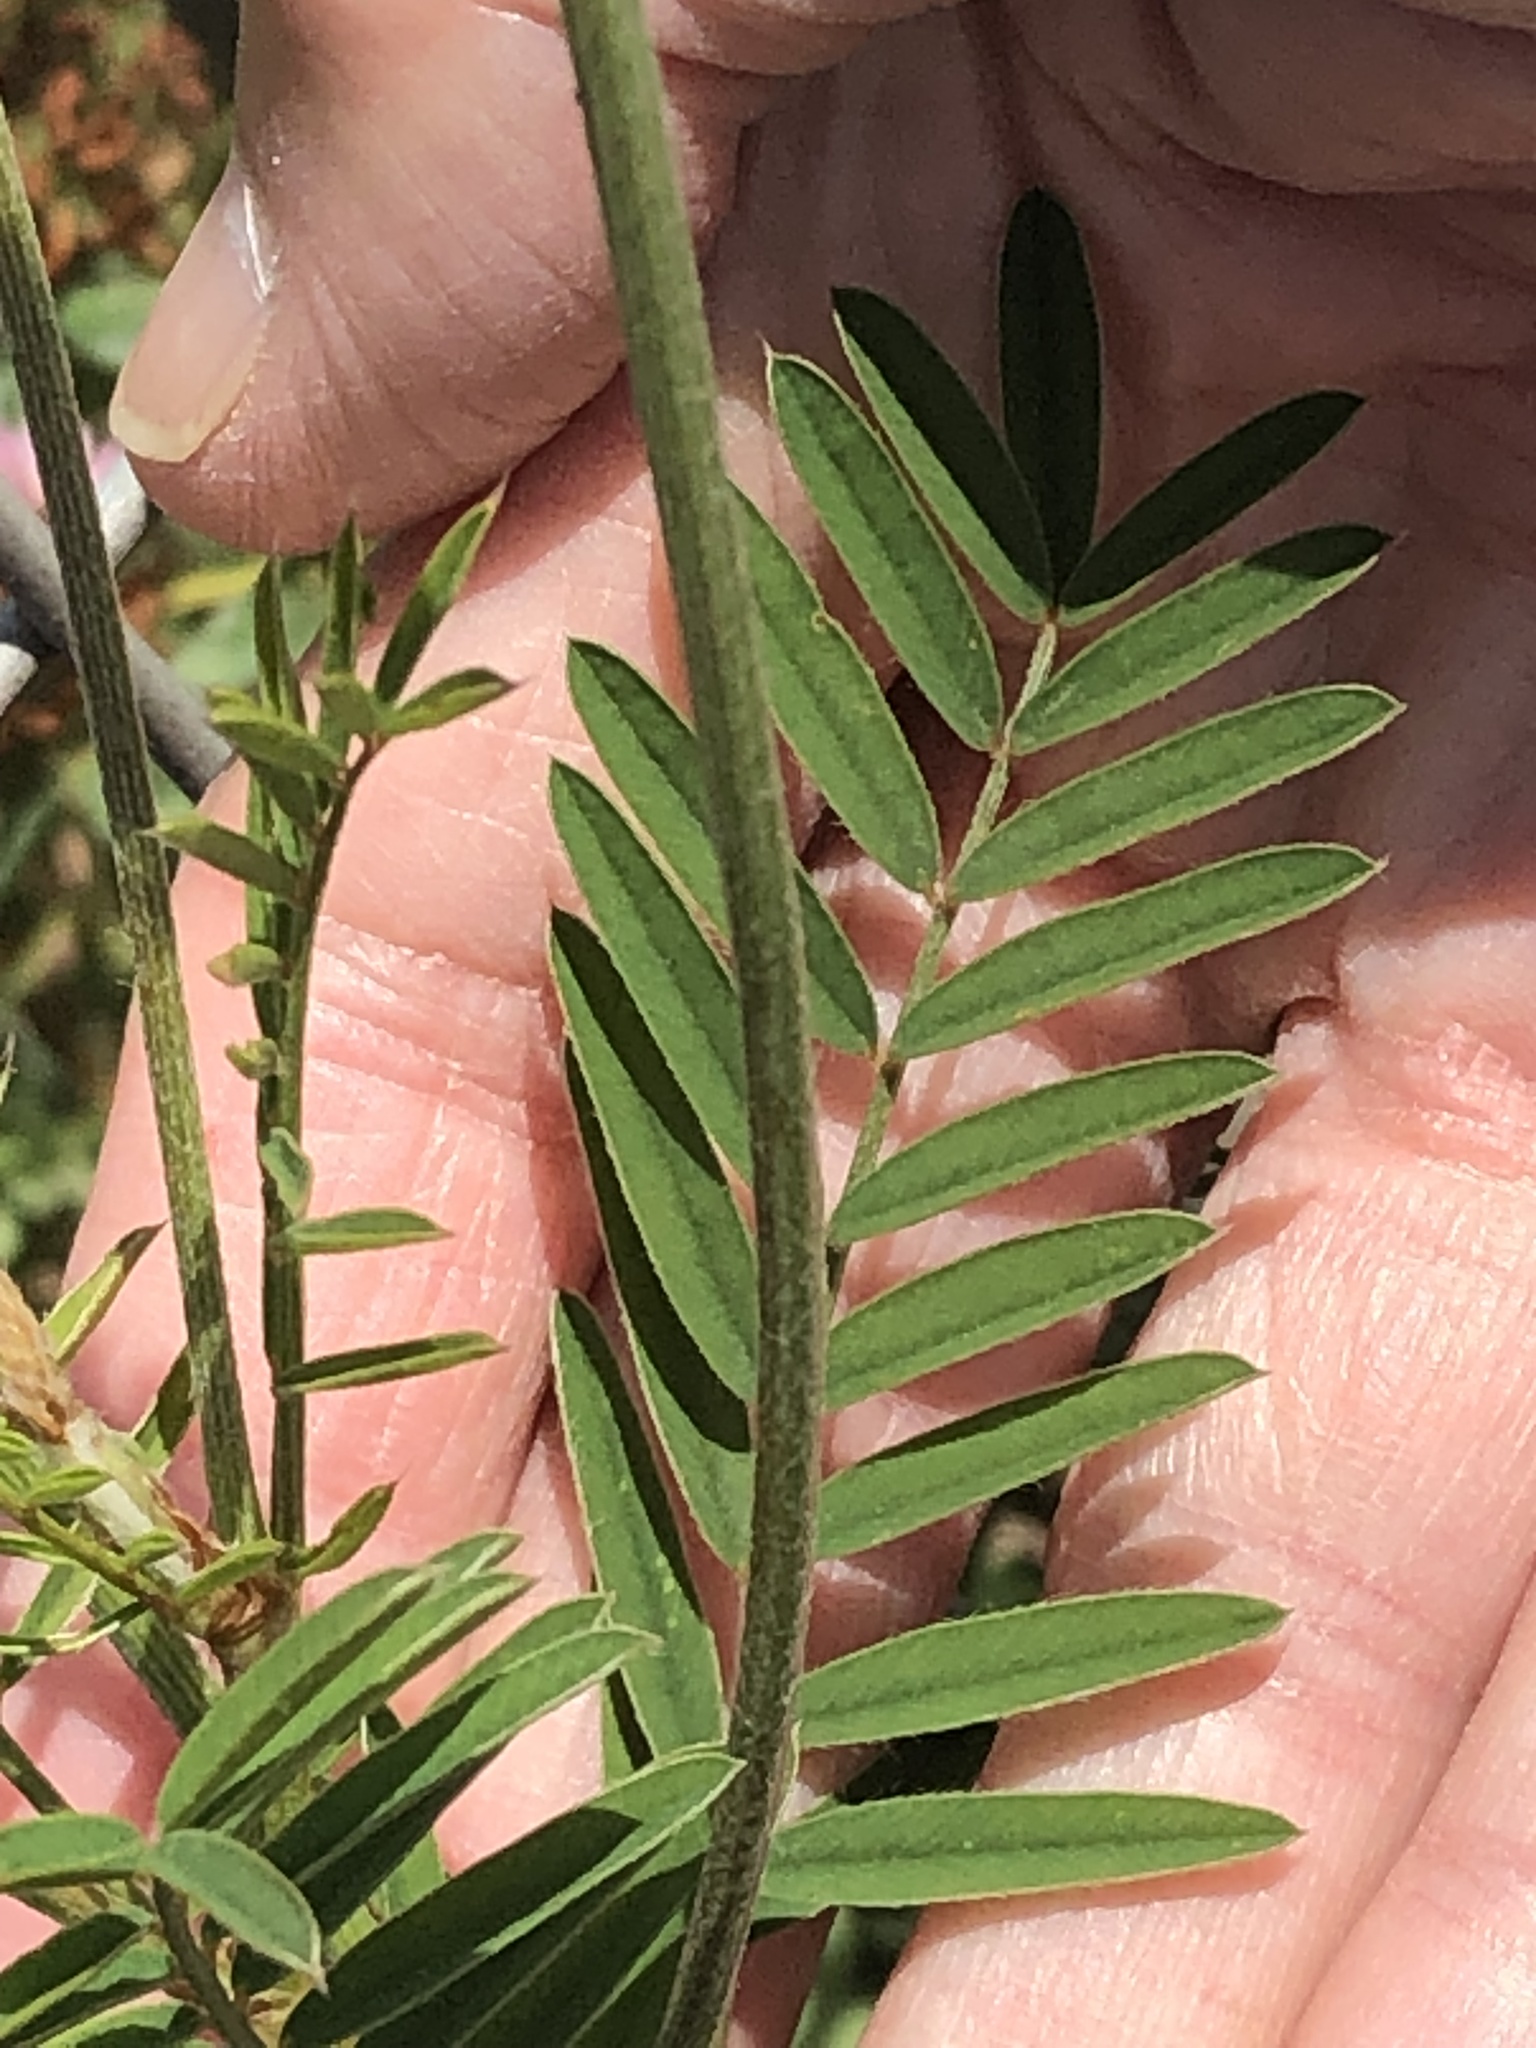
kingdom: Plantae
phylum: Tracheophyta
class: Magnoliopsida
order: Fabales
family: Fabaceae
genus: Onobrychis
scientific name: Onobrychis viciifolia
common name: Sainfoin
